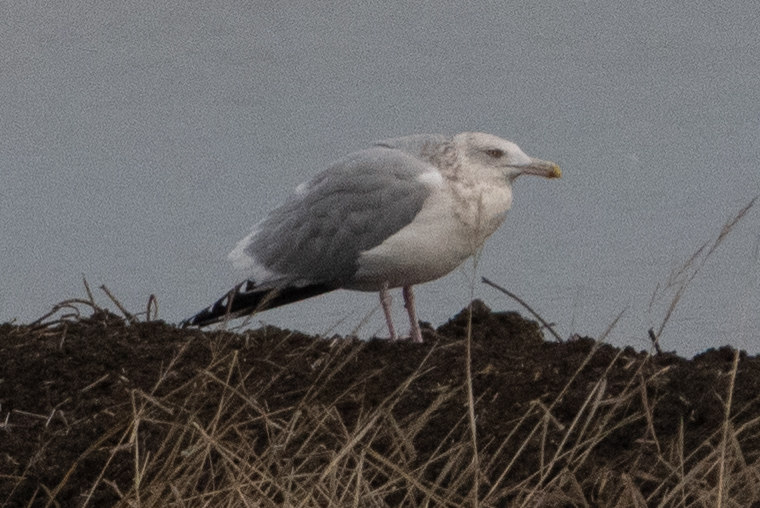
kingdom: Animalia
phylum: Chordata
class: Aves
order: Charadriiformes
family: Laridae
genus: Larus
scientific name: Larus argentatus
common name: Herring gull
